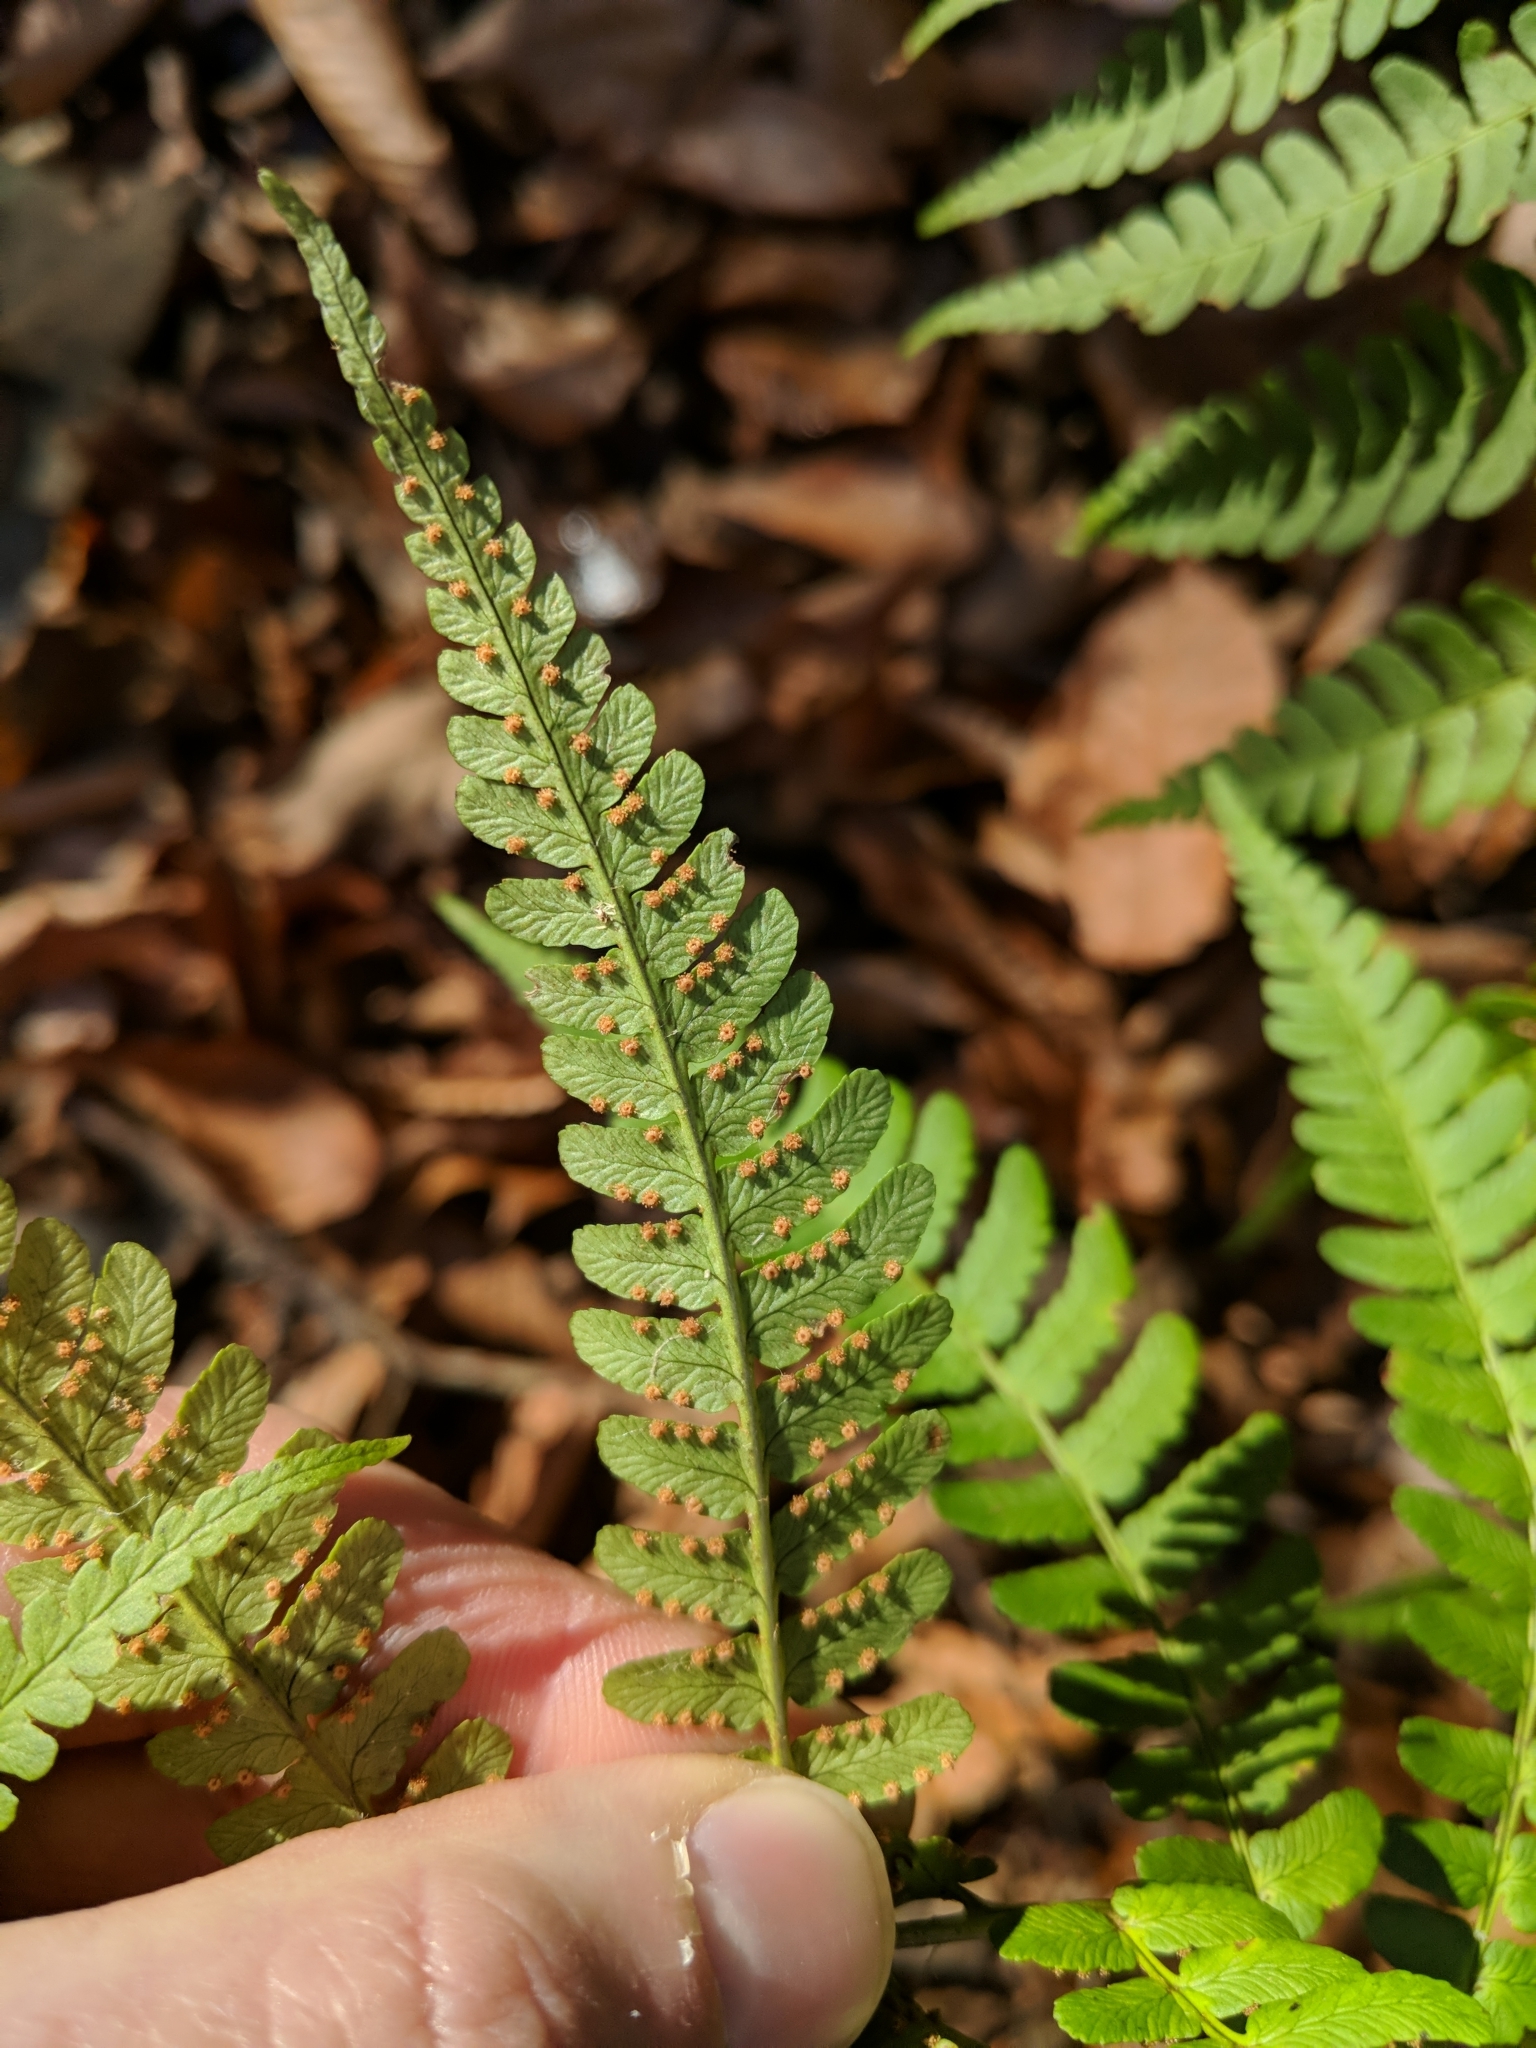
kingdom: Plantae
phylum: Tracheophyta
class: Polypodiopsida
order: Polypodiales
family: Dryopteridaceae
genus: Dryopteris
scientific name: Dryopteris marginalis
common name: Marginal wood fern
